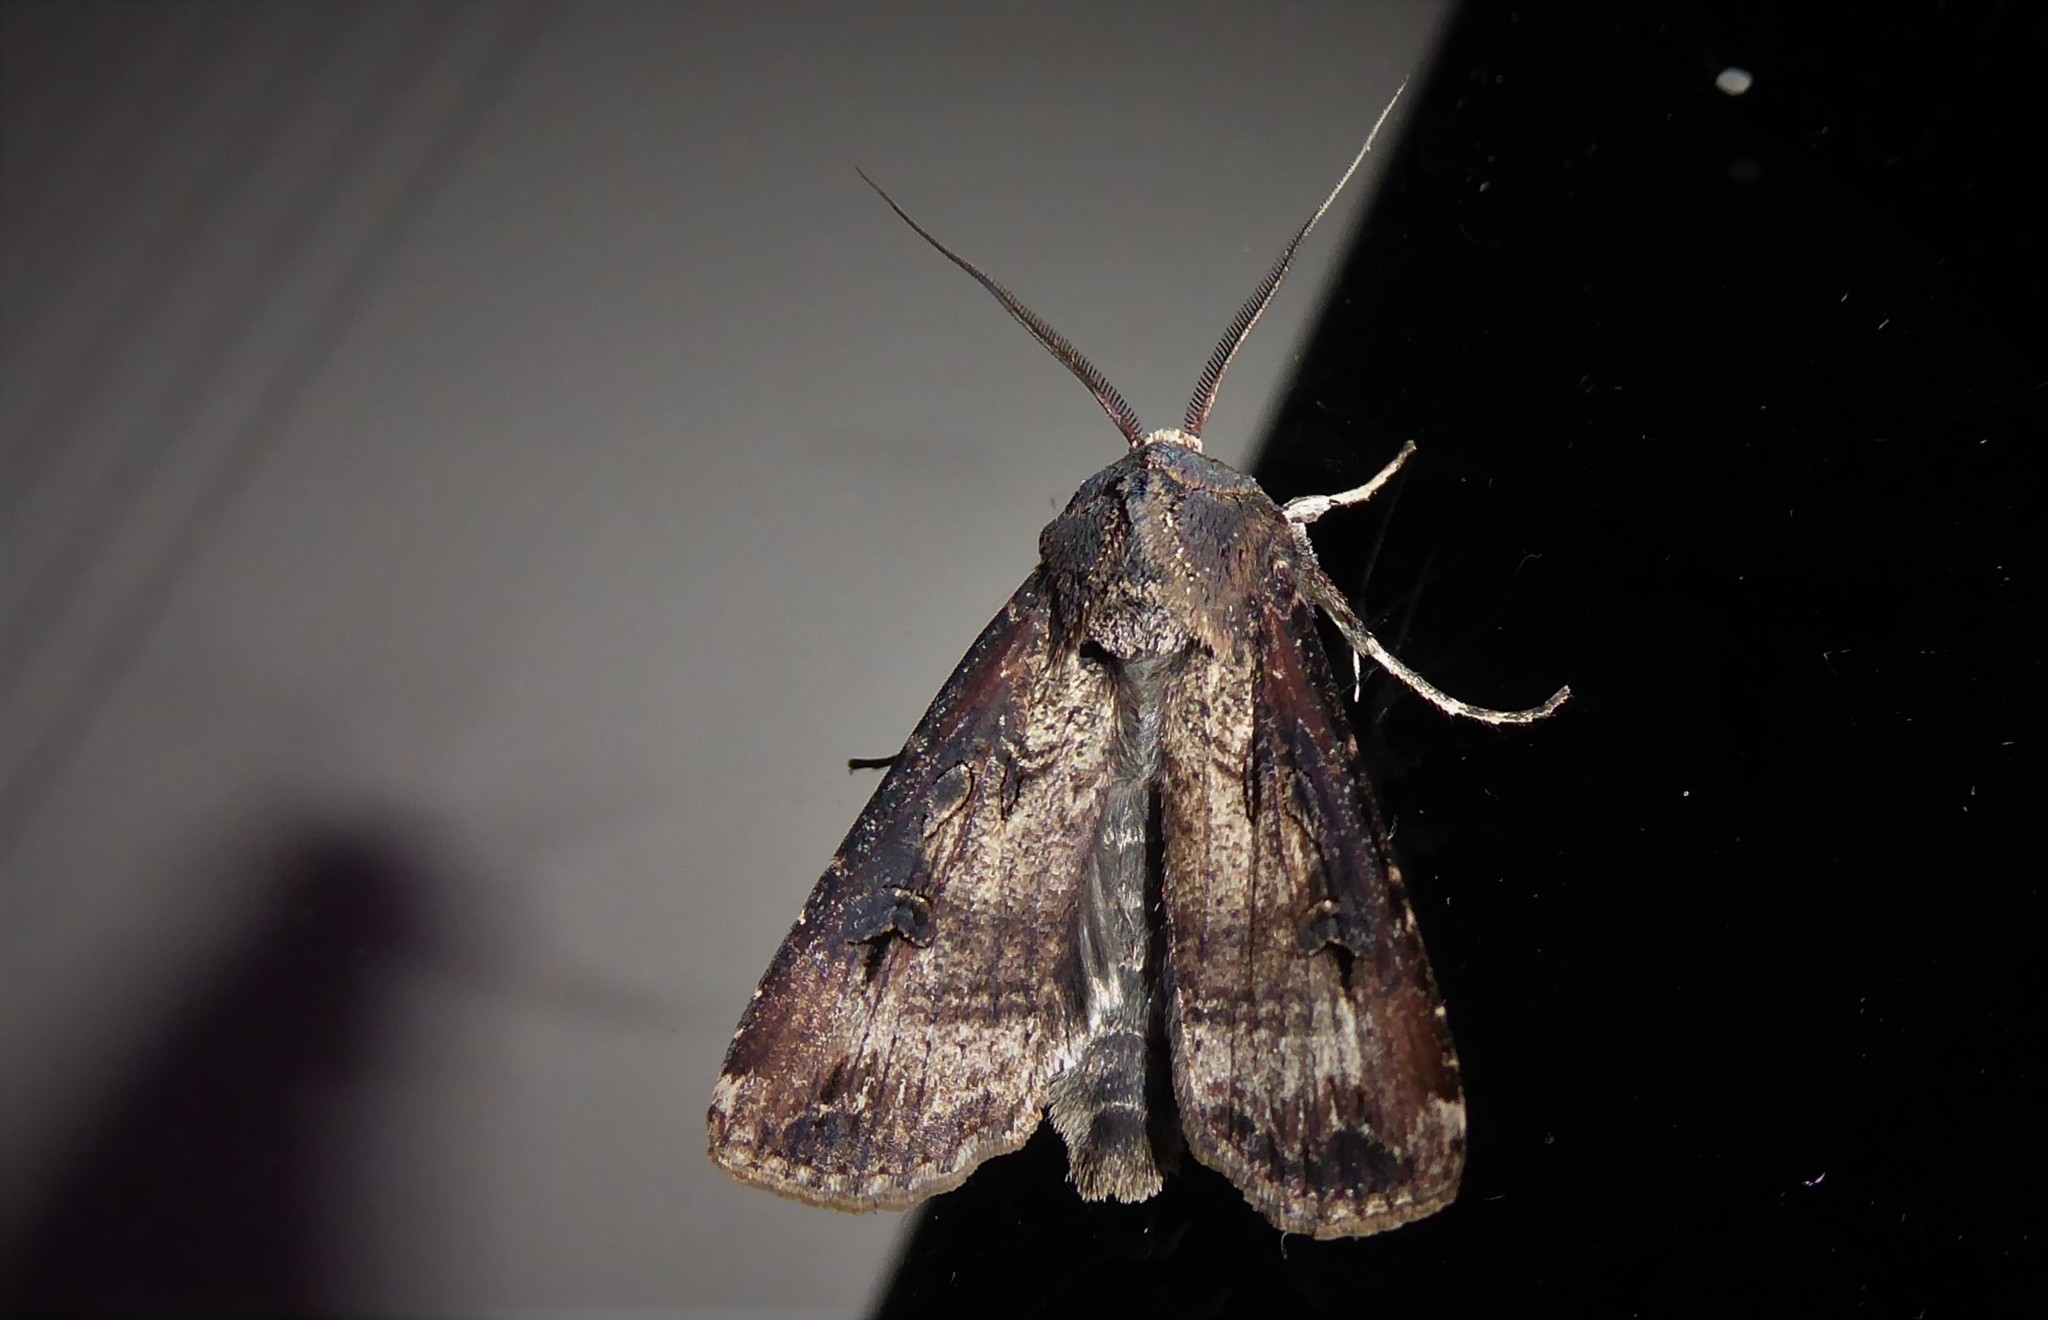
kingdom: Animalia
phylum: Arthropoda
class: Insecta
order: Lepidoptera
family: Noctuidae
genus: Agrotis
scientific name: Agrotis ipsilon
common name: Dark sword-grass
